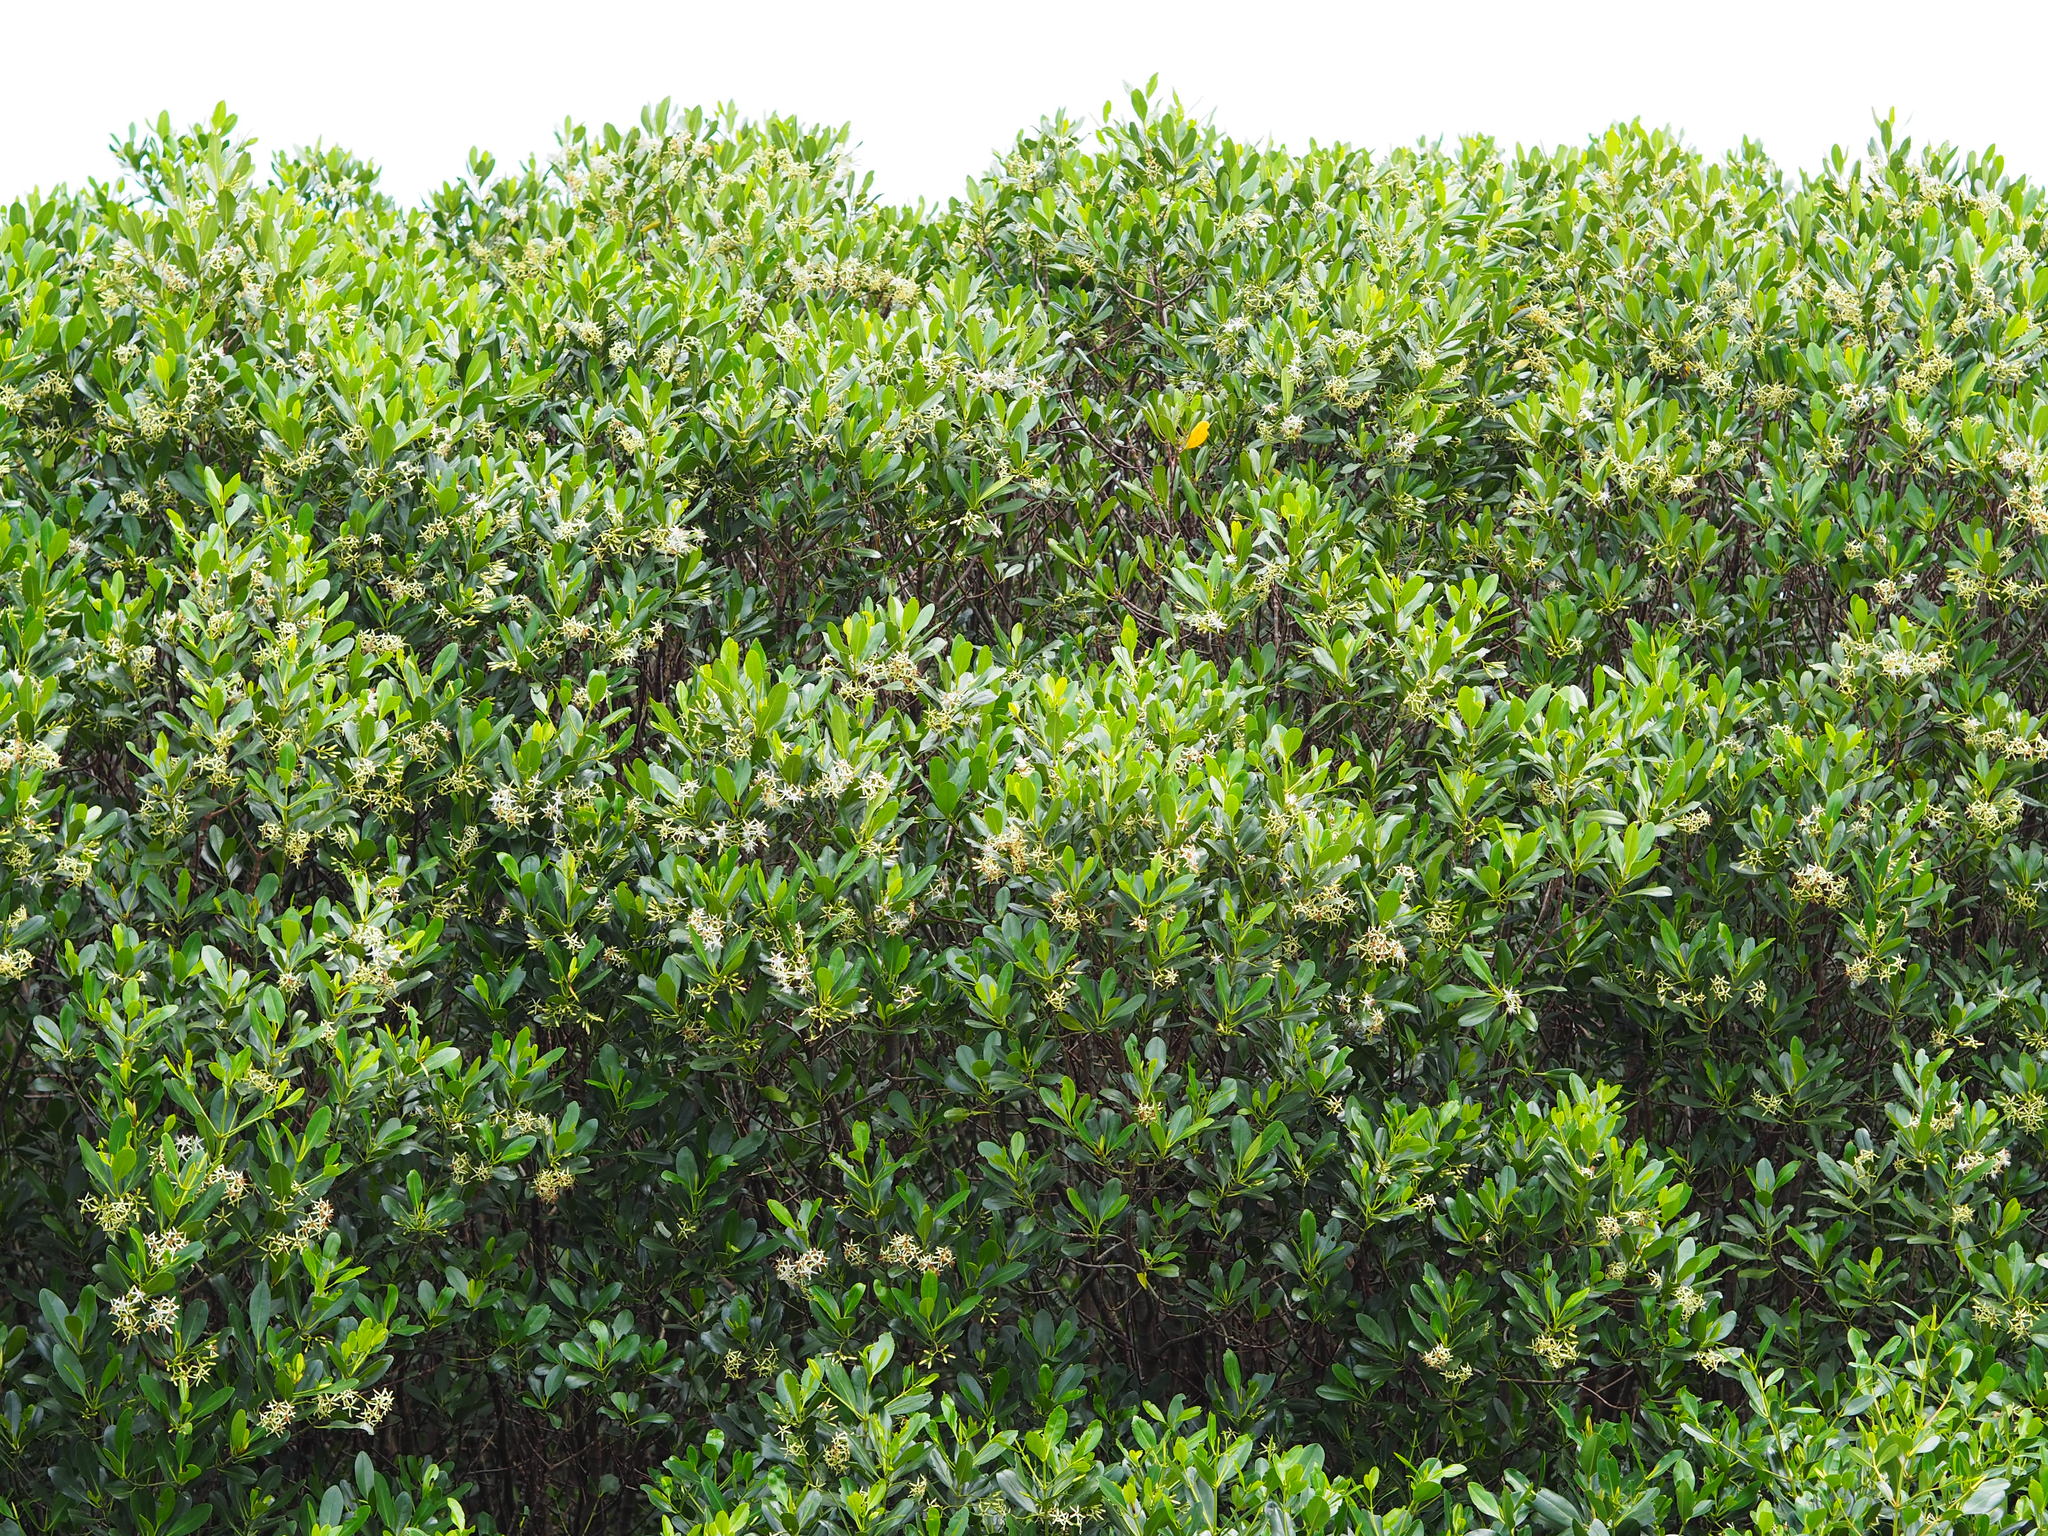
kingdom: Plantae
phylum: Tracheophyta
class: Magnoliopsida
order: Malpighiales
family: Rhizophoraceae
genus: Kandelia
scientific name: Kandelia obovata
